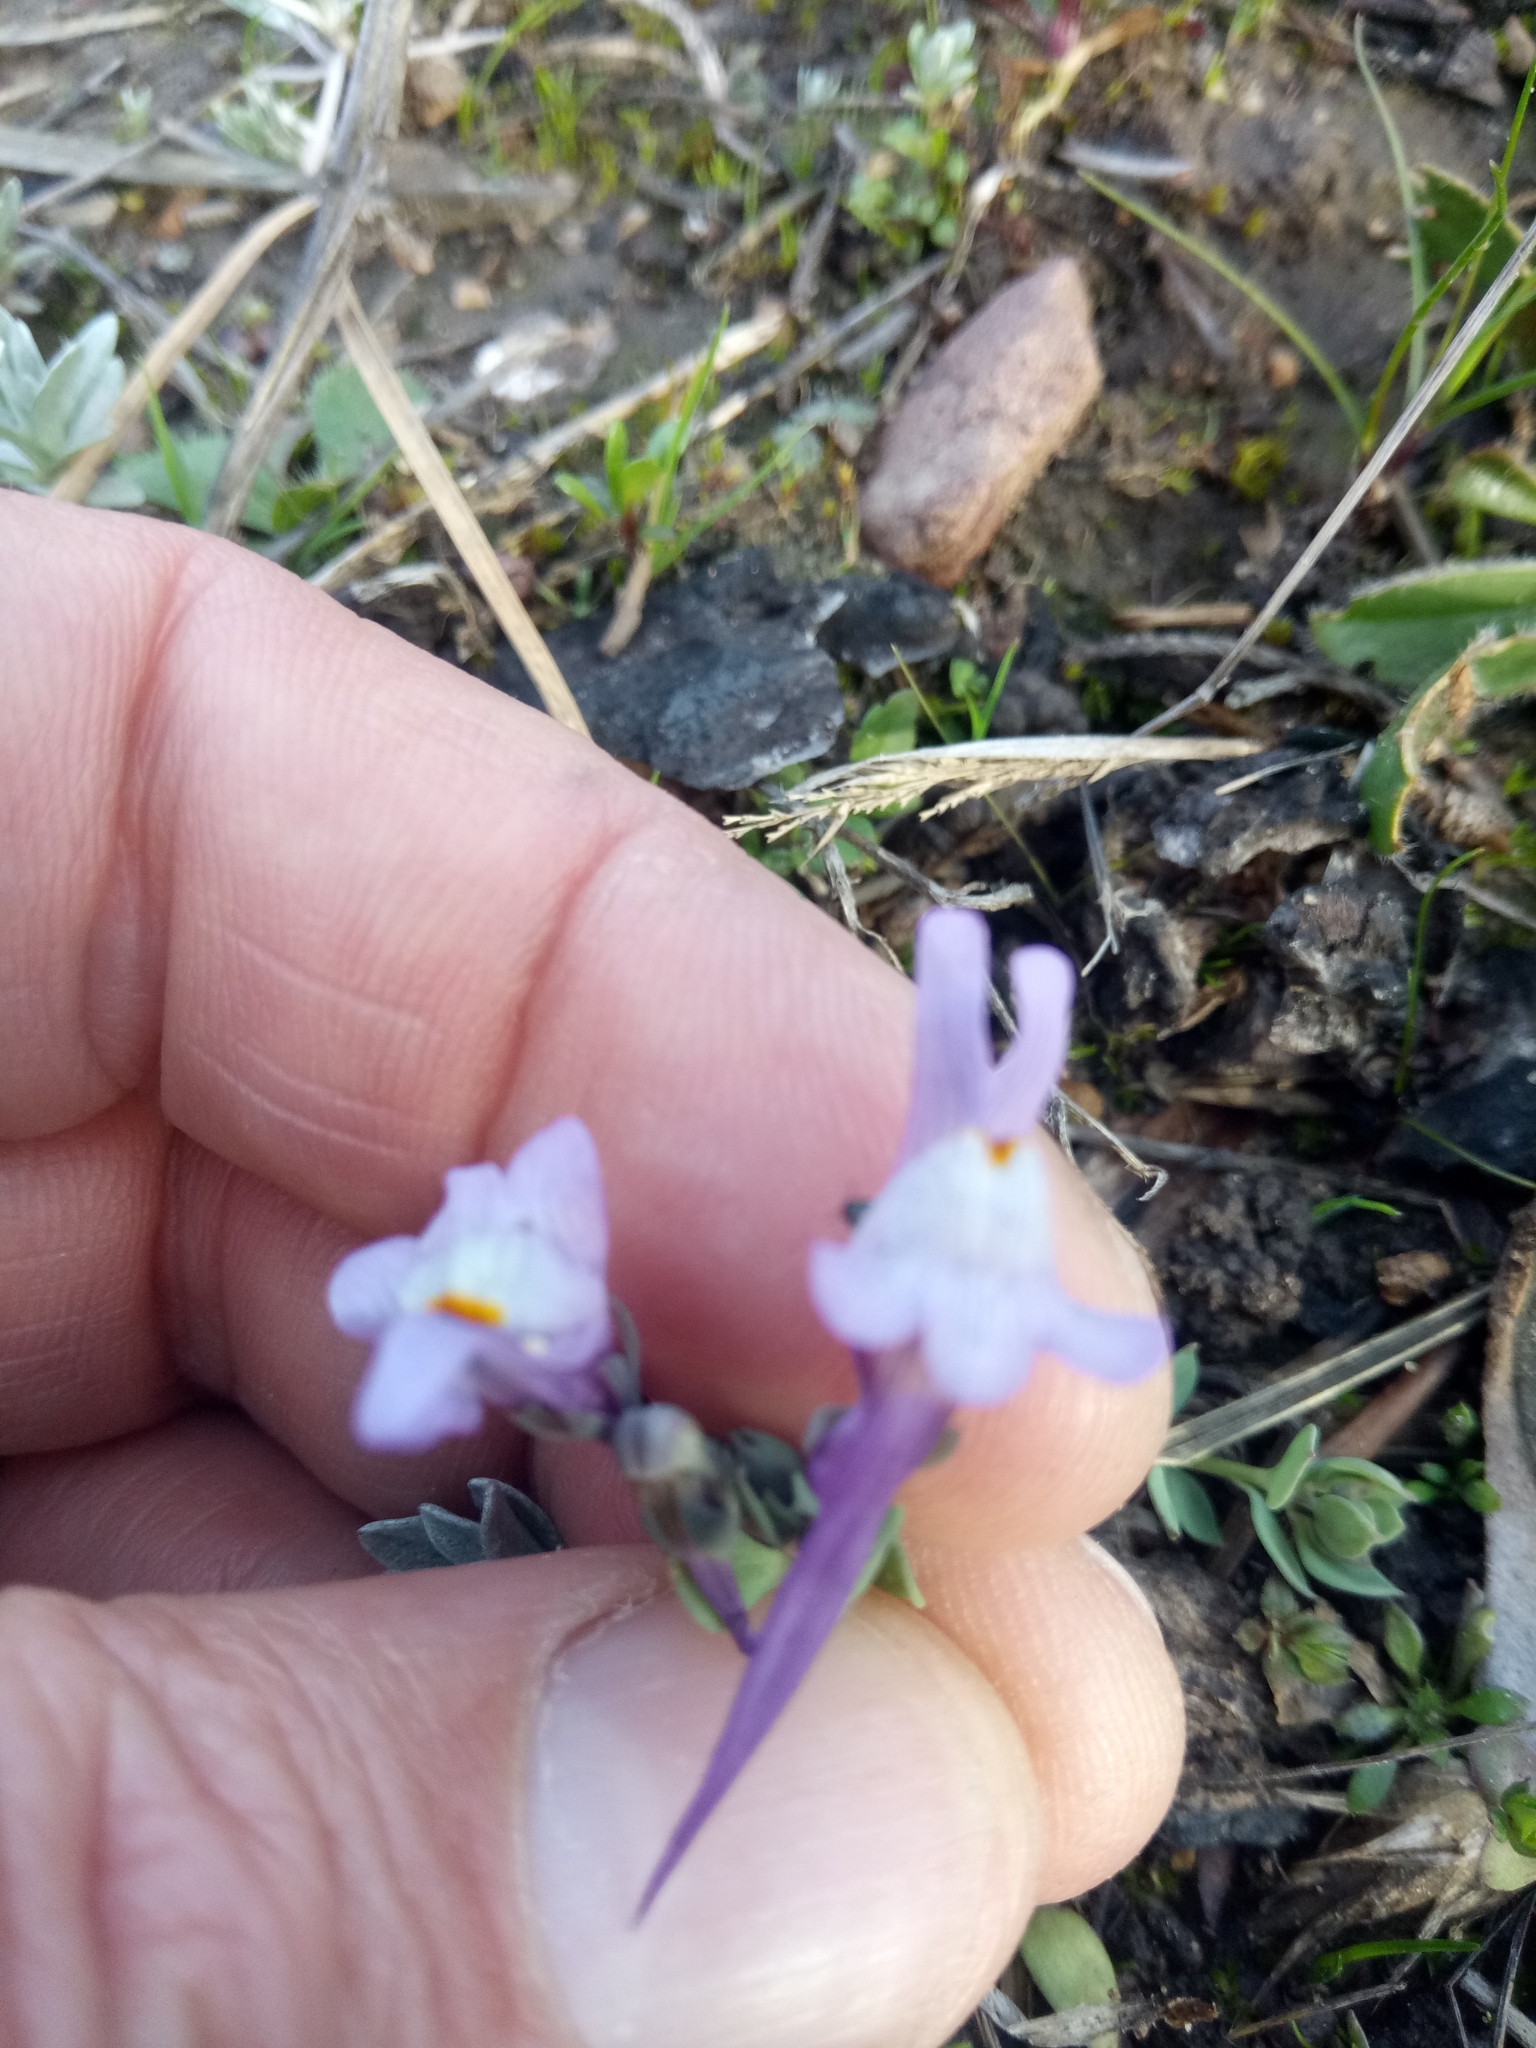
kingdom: Plantae
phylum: Tracheophyta
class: Magnoliopsida
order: Lamiales
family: Plantaginaceae
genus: Linaria
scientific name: Linaria reflexa
